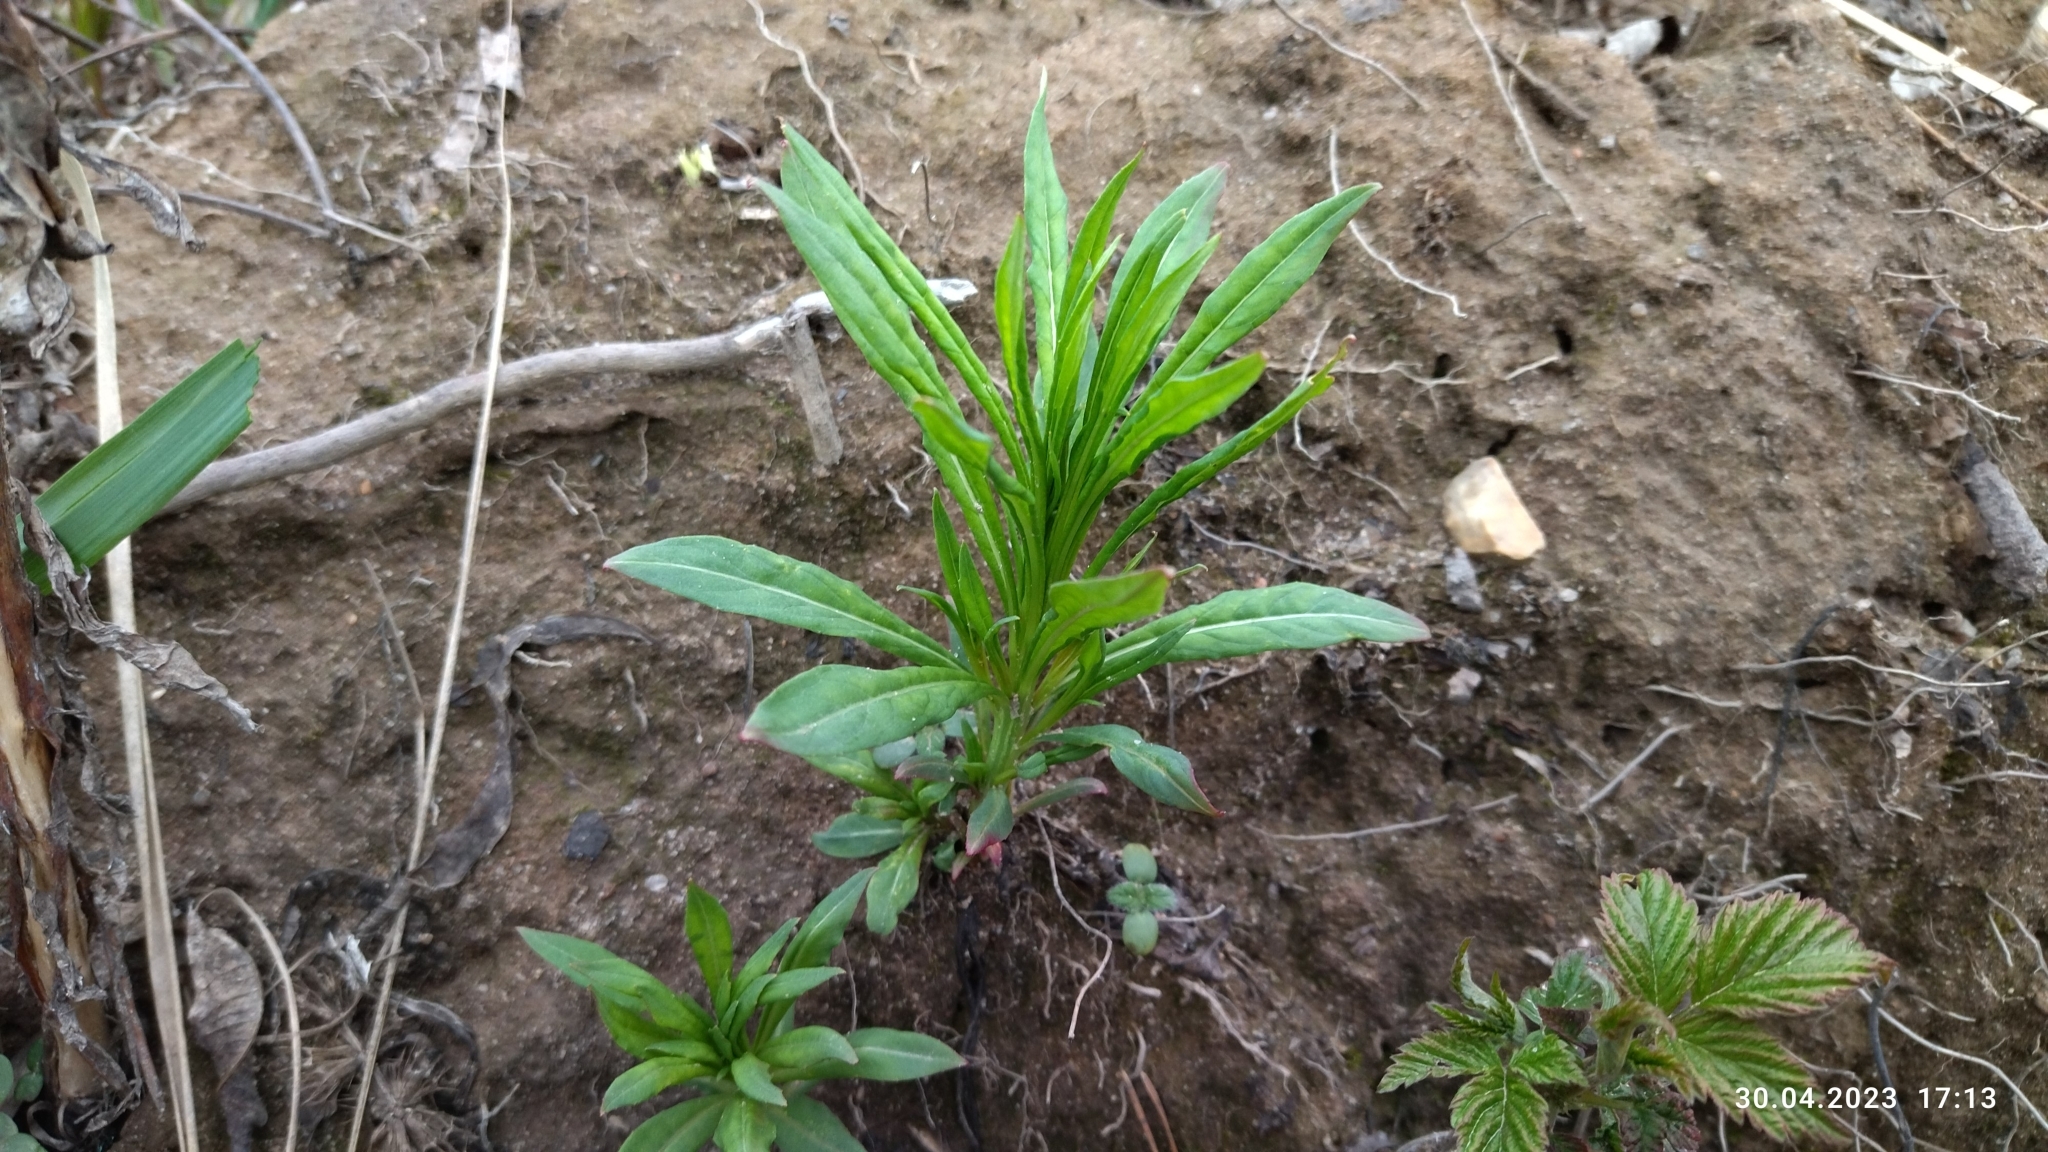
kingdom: Plantae
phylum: Tracheophyta
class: Magnoliopsida
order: Myrtales
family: Onagraceae
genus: Chamaenerion
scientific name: Chamaenerion angustifolium
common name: Fireweed
